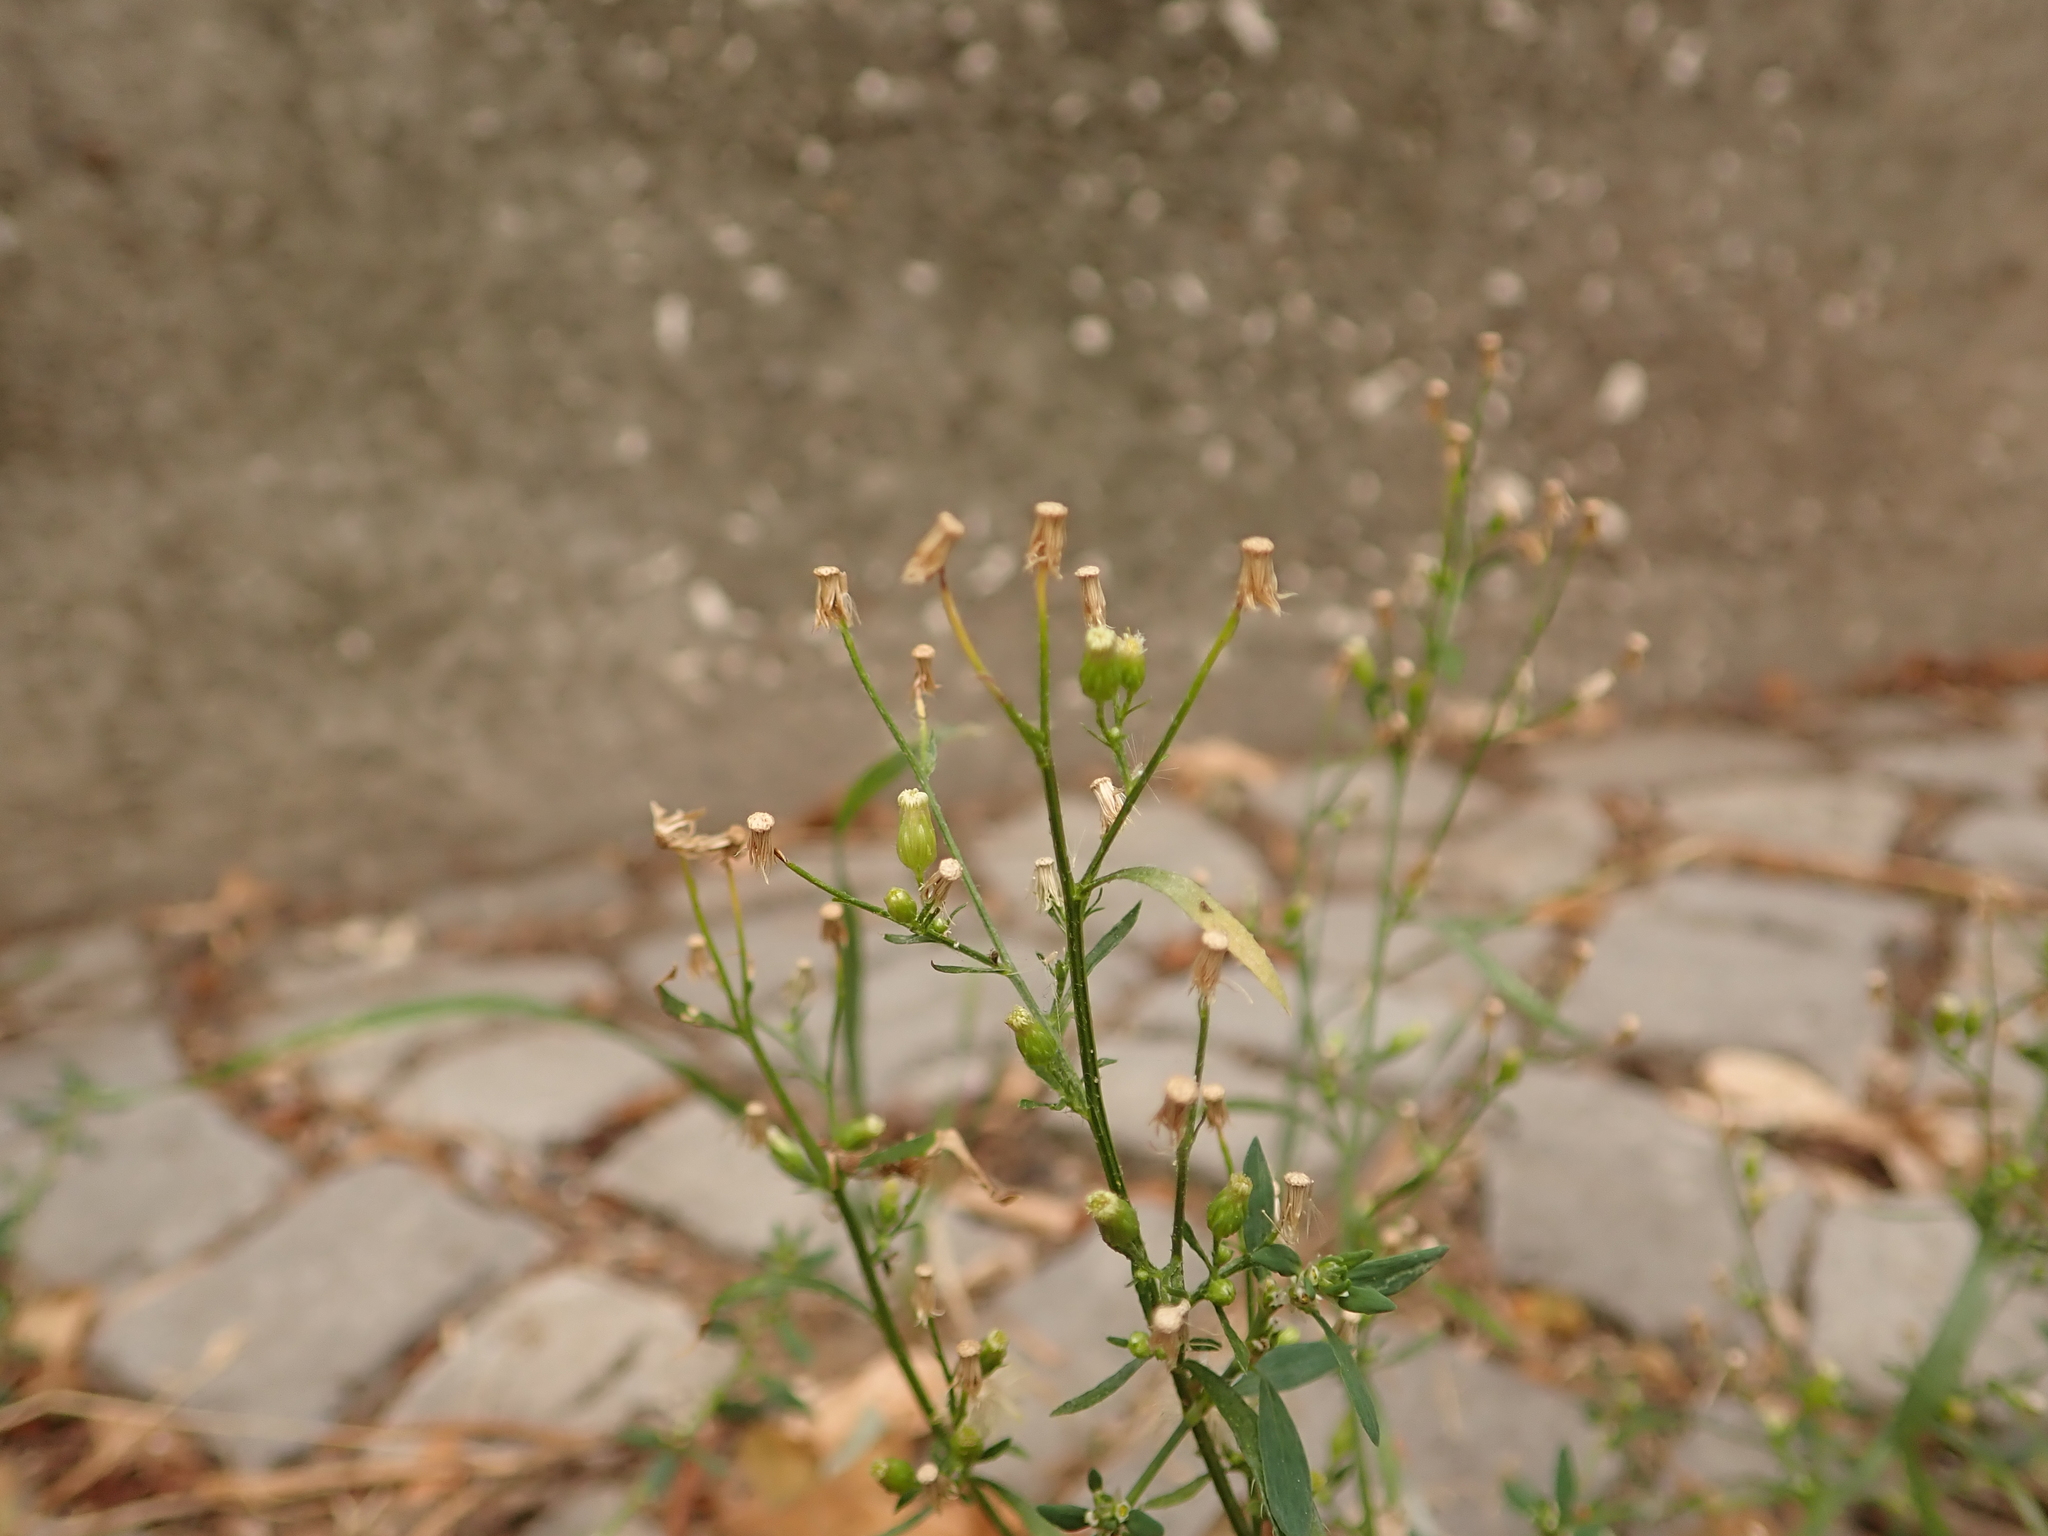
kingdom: Plantae
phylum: Tracheophyta
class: Magnoliopsida
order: Asterales
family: Asteraceae
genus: Erigeron
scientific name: Erigeron canadensis
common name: Canadian fleabane
